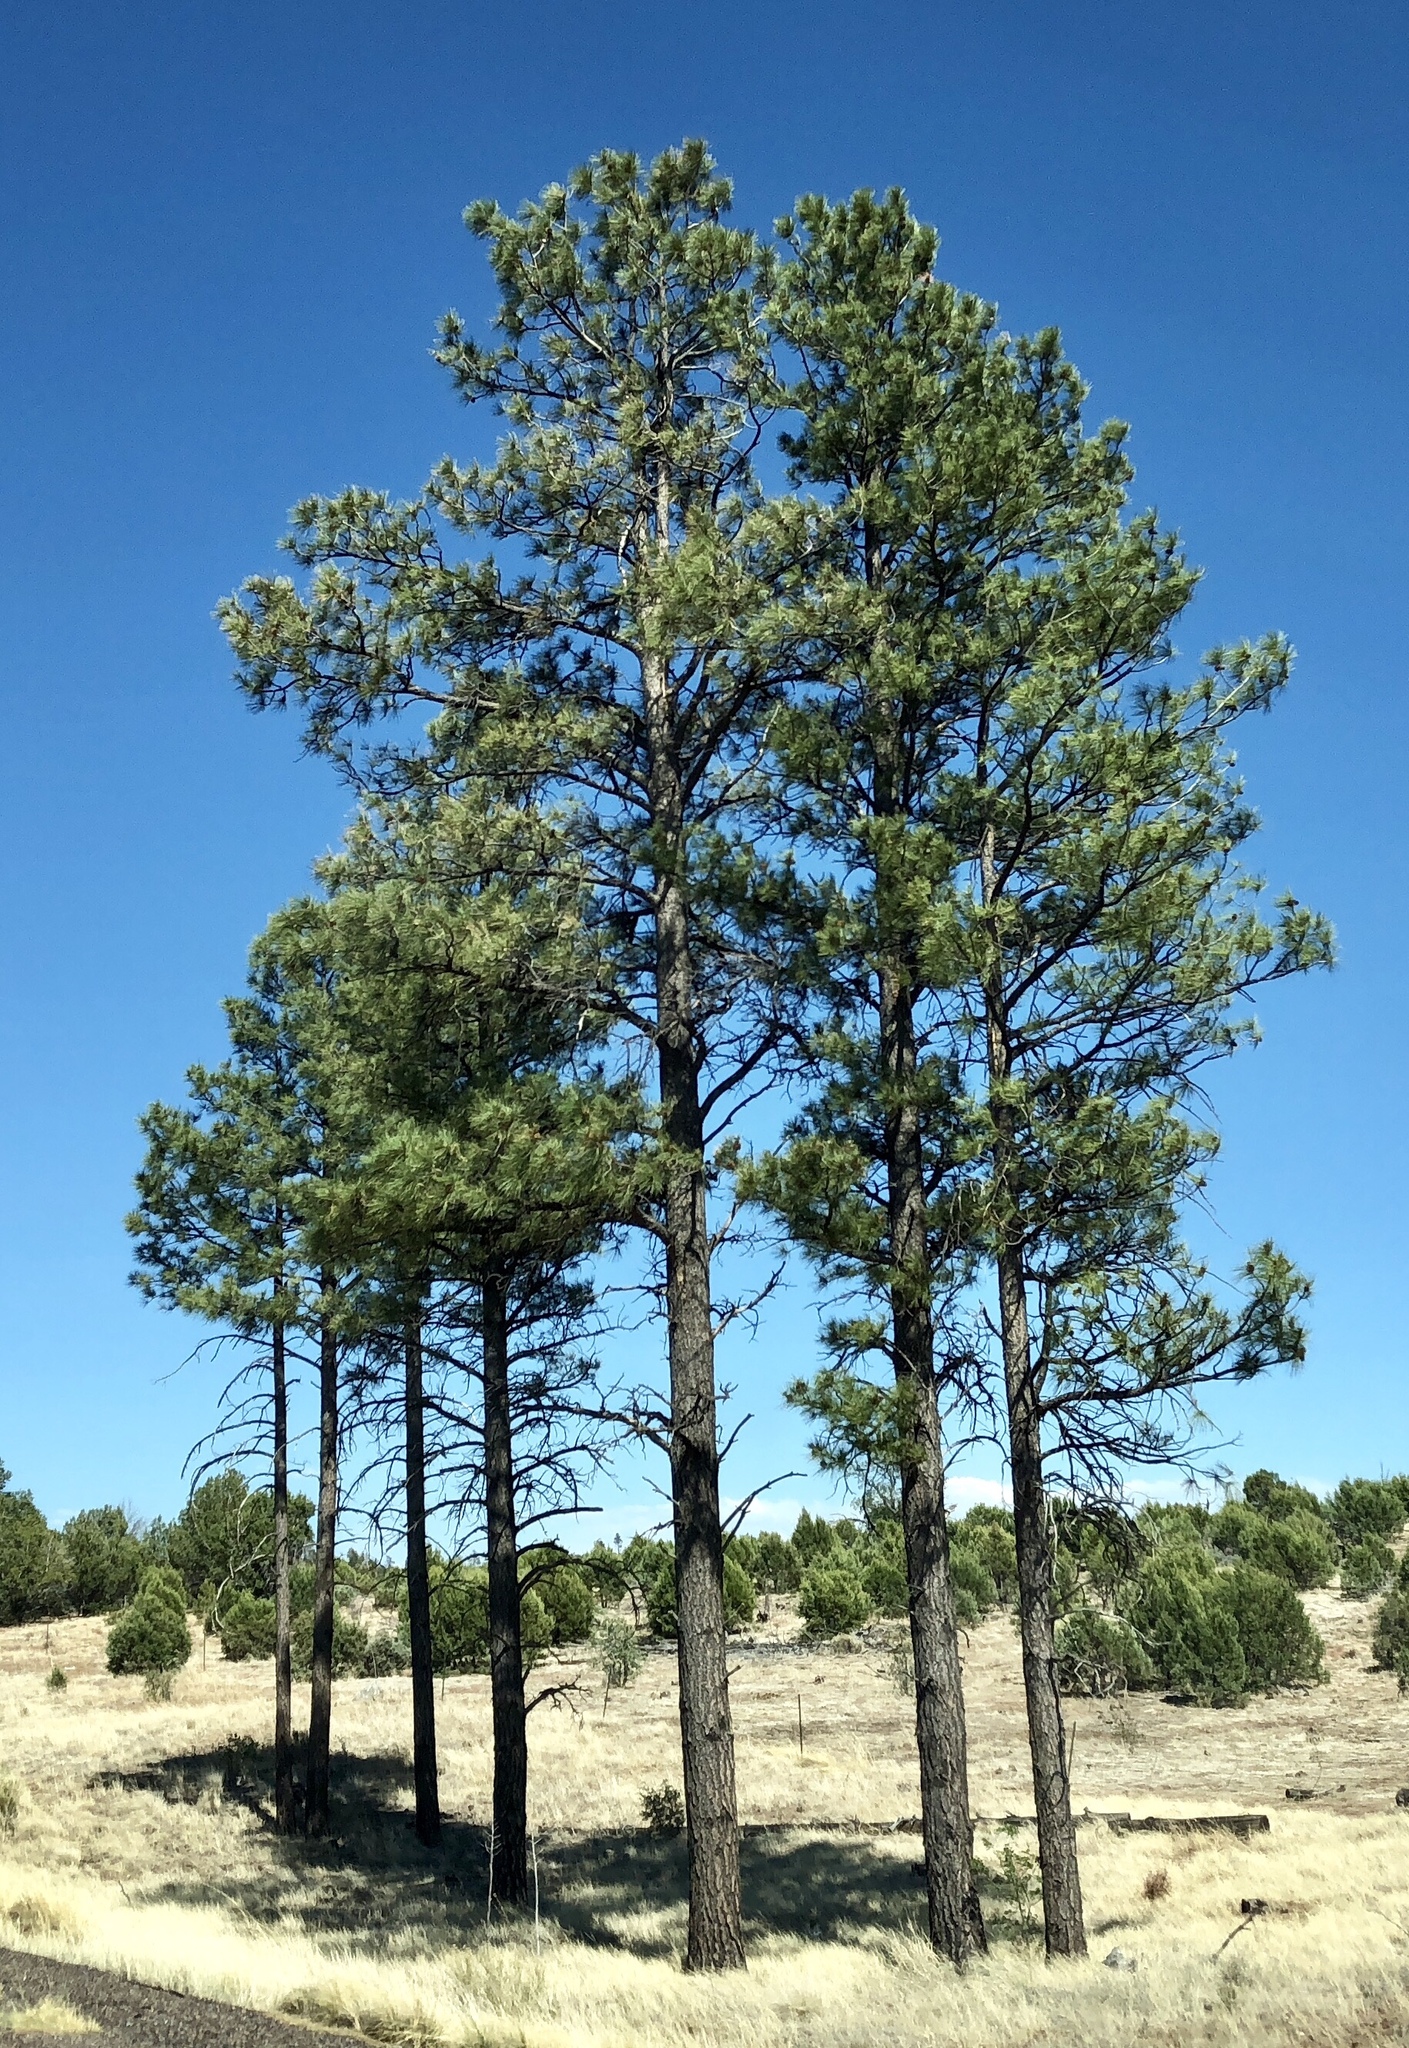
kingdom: Plantae
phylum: Tracheophyta
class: Pinopsida
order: Pinales
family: Pinaceae
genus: Pinus
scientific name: Pinus ponderosa
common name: Western yellow-pine
